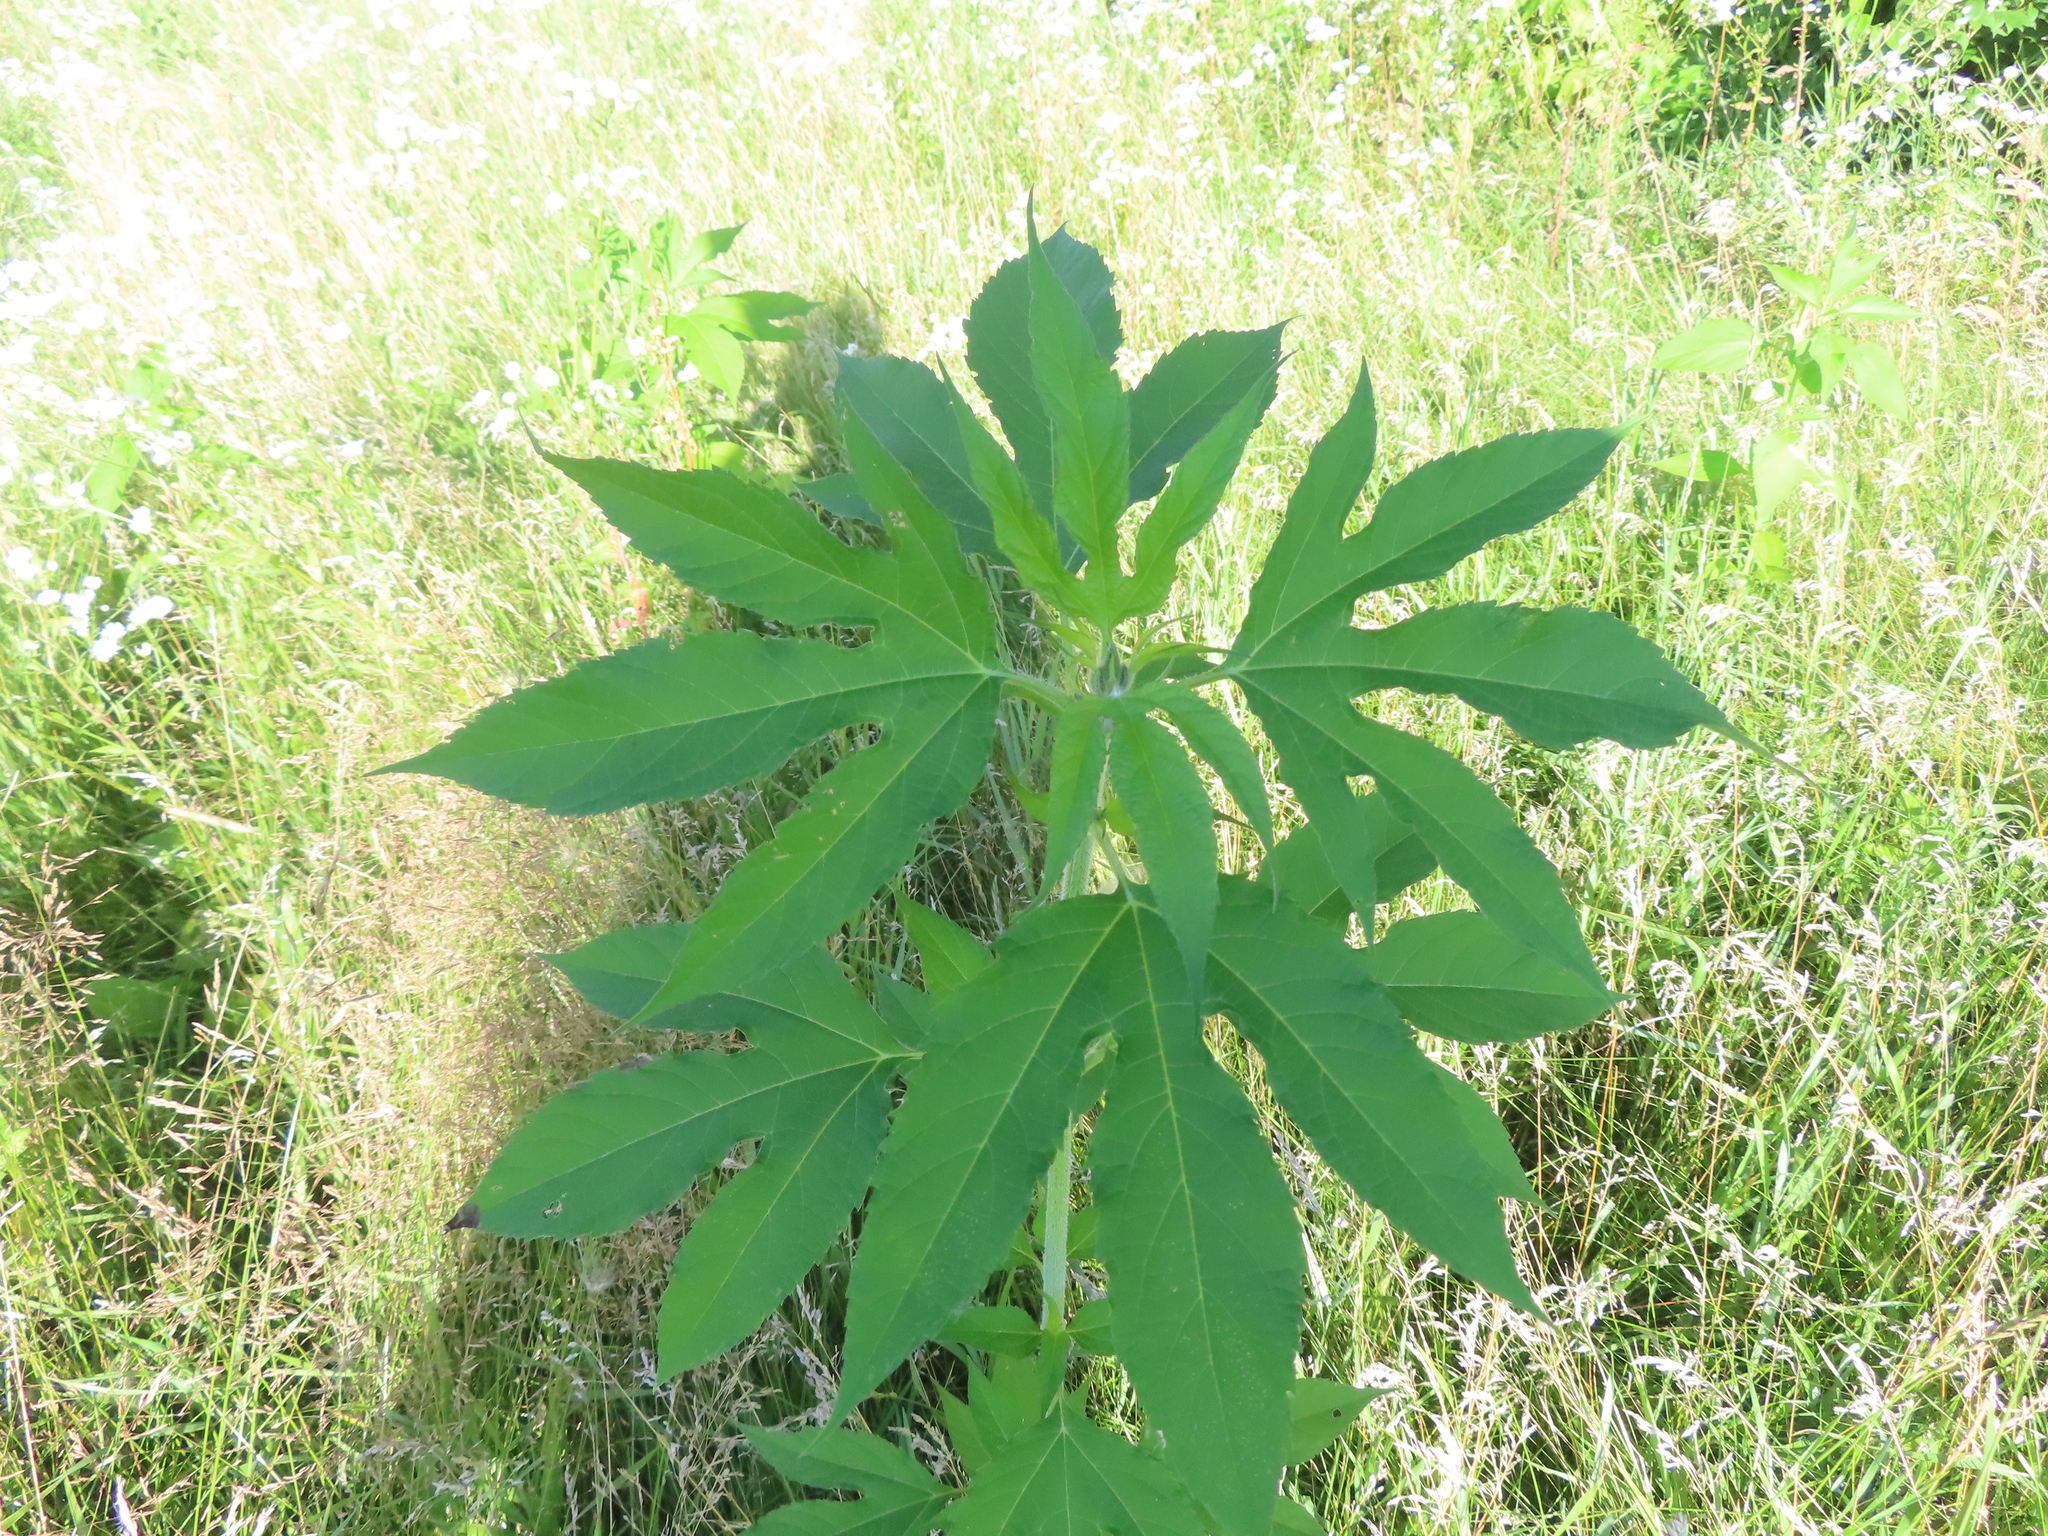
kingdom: Plantae
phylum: Tracheophyta
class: Magnoliopsida
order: Asterales
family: Asteraceae
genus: Ambrosia
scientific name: Ambrosia trifida
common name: Giant ragweed
